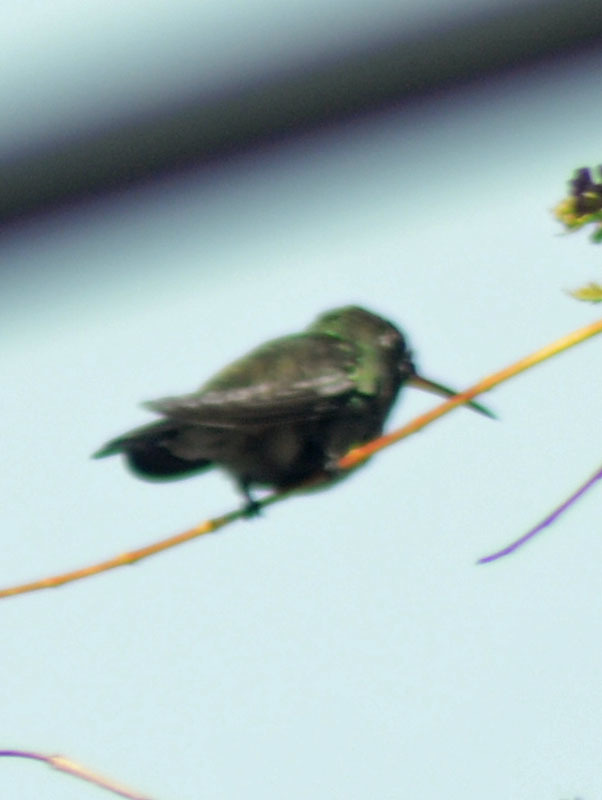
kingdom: Animalia
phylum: Chordata
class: Aves
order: Apodiformes
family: Trochilidae
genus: Cynanthus
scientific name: Cynanthus latirostris
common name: Broad-billed hummingbird
